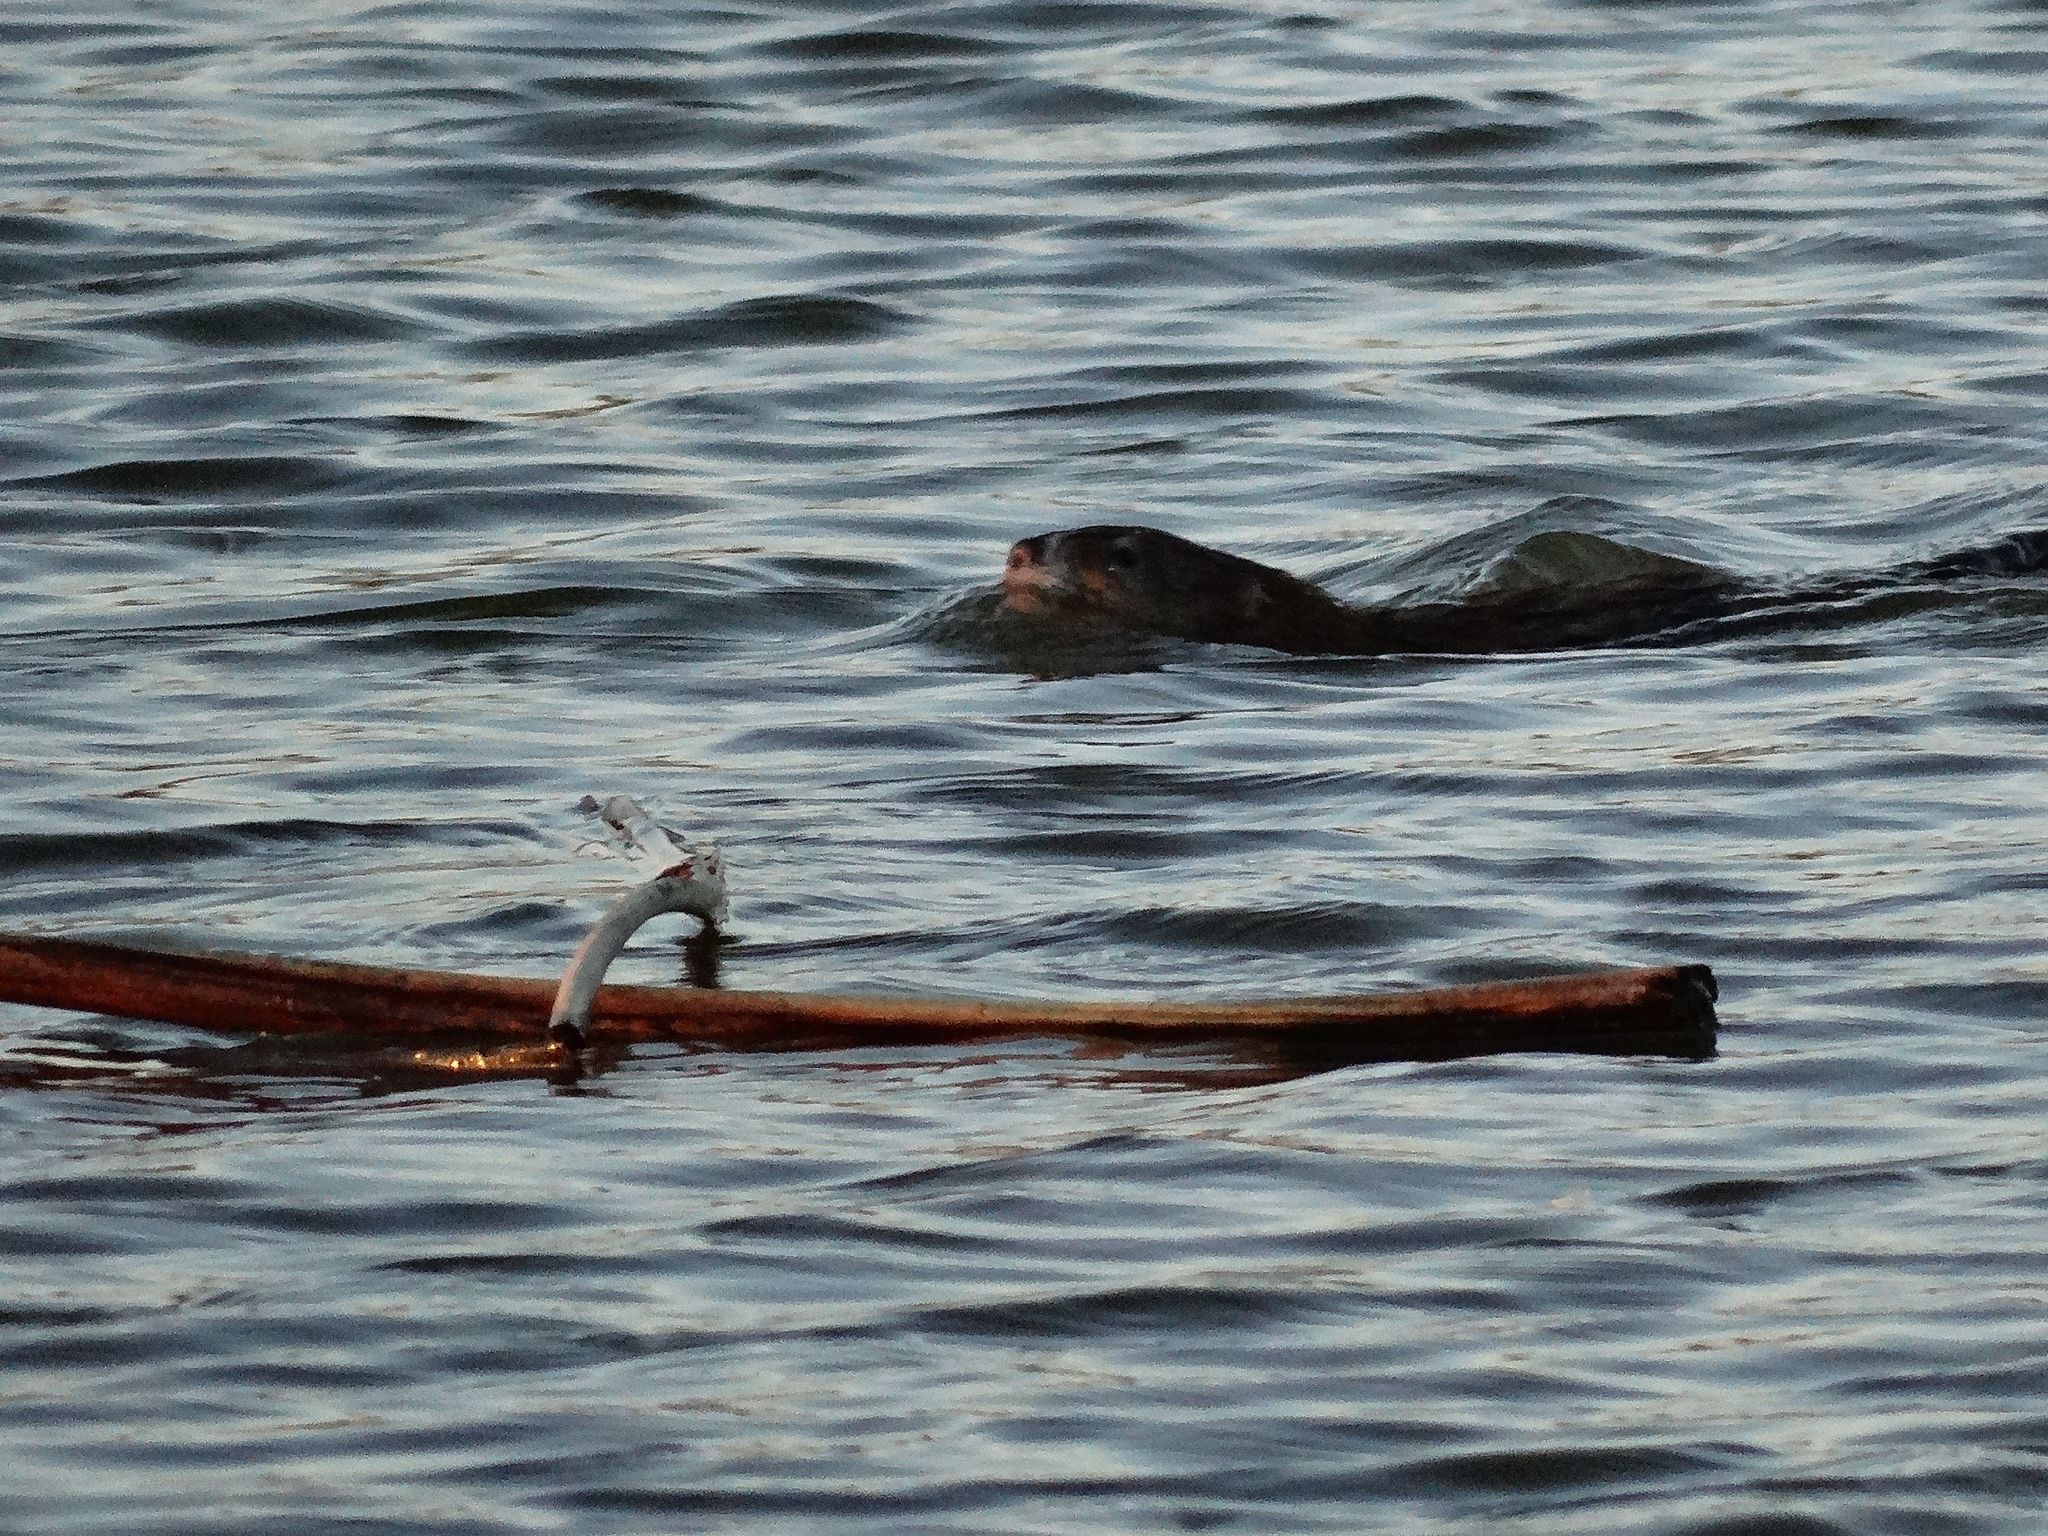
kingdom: Animalia
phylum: Chordata
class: Mammalia
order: Rodentia
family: Cricetidae
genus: Ondatra
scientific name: Ondatra zibethicus
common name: Muskrat
